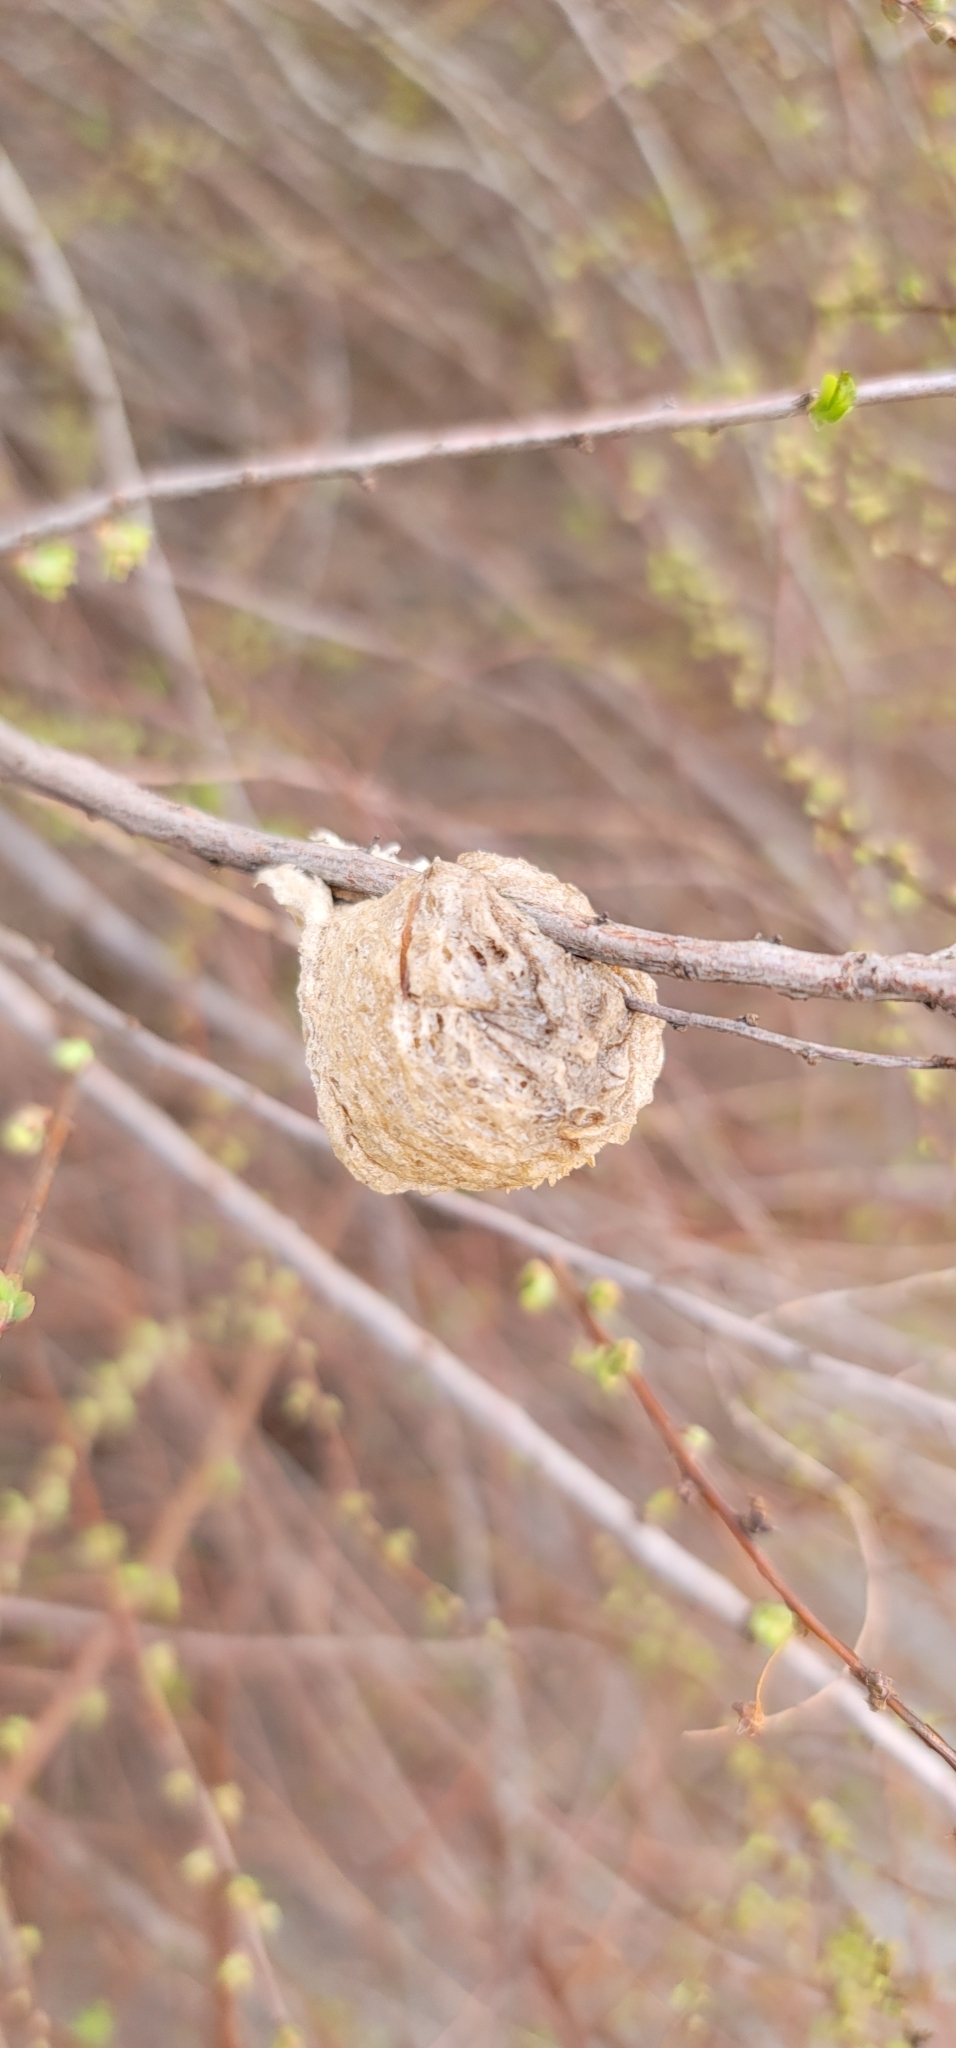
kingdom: Animalia
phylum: Arthropoda
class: Insecta
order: Mantodea
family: Mantidae
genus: Tenodera
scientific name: Tenodera sinensis
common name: Chinese mantis
